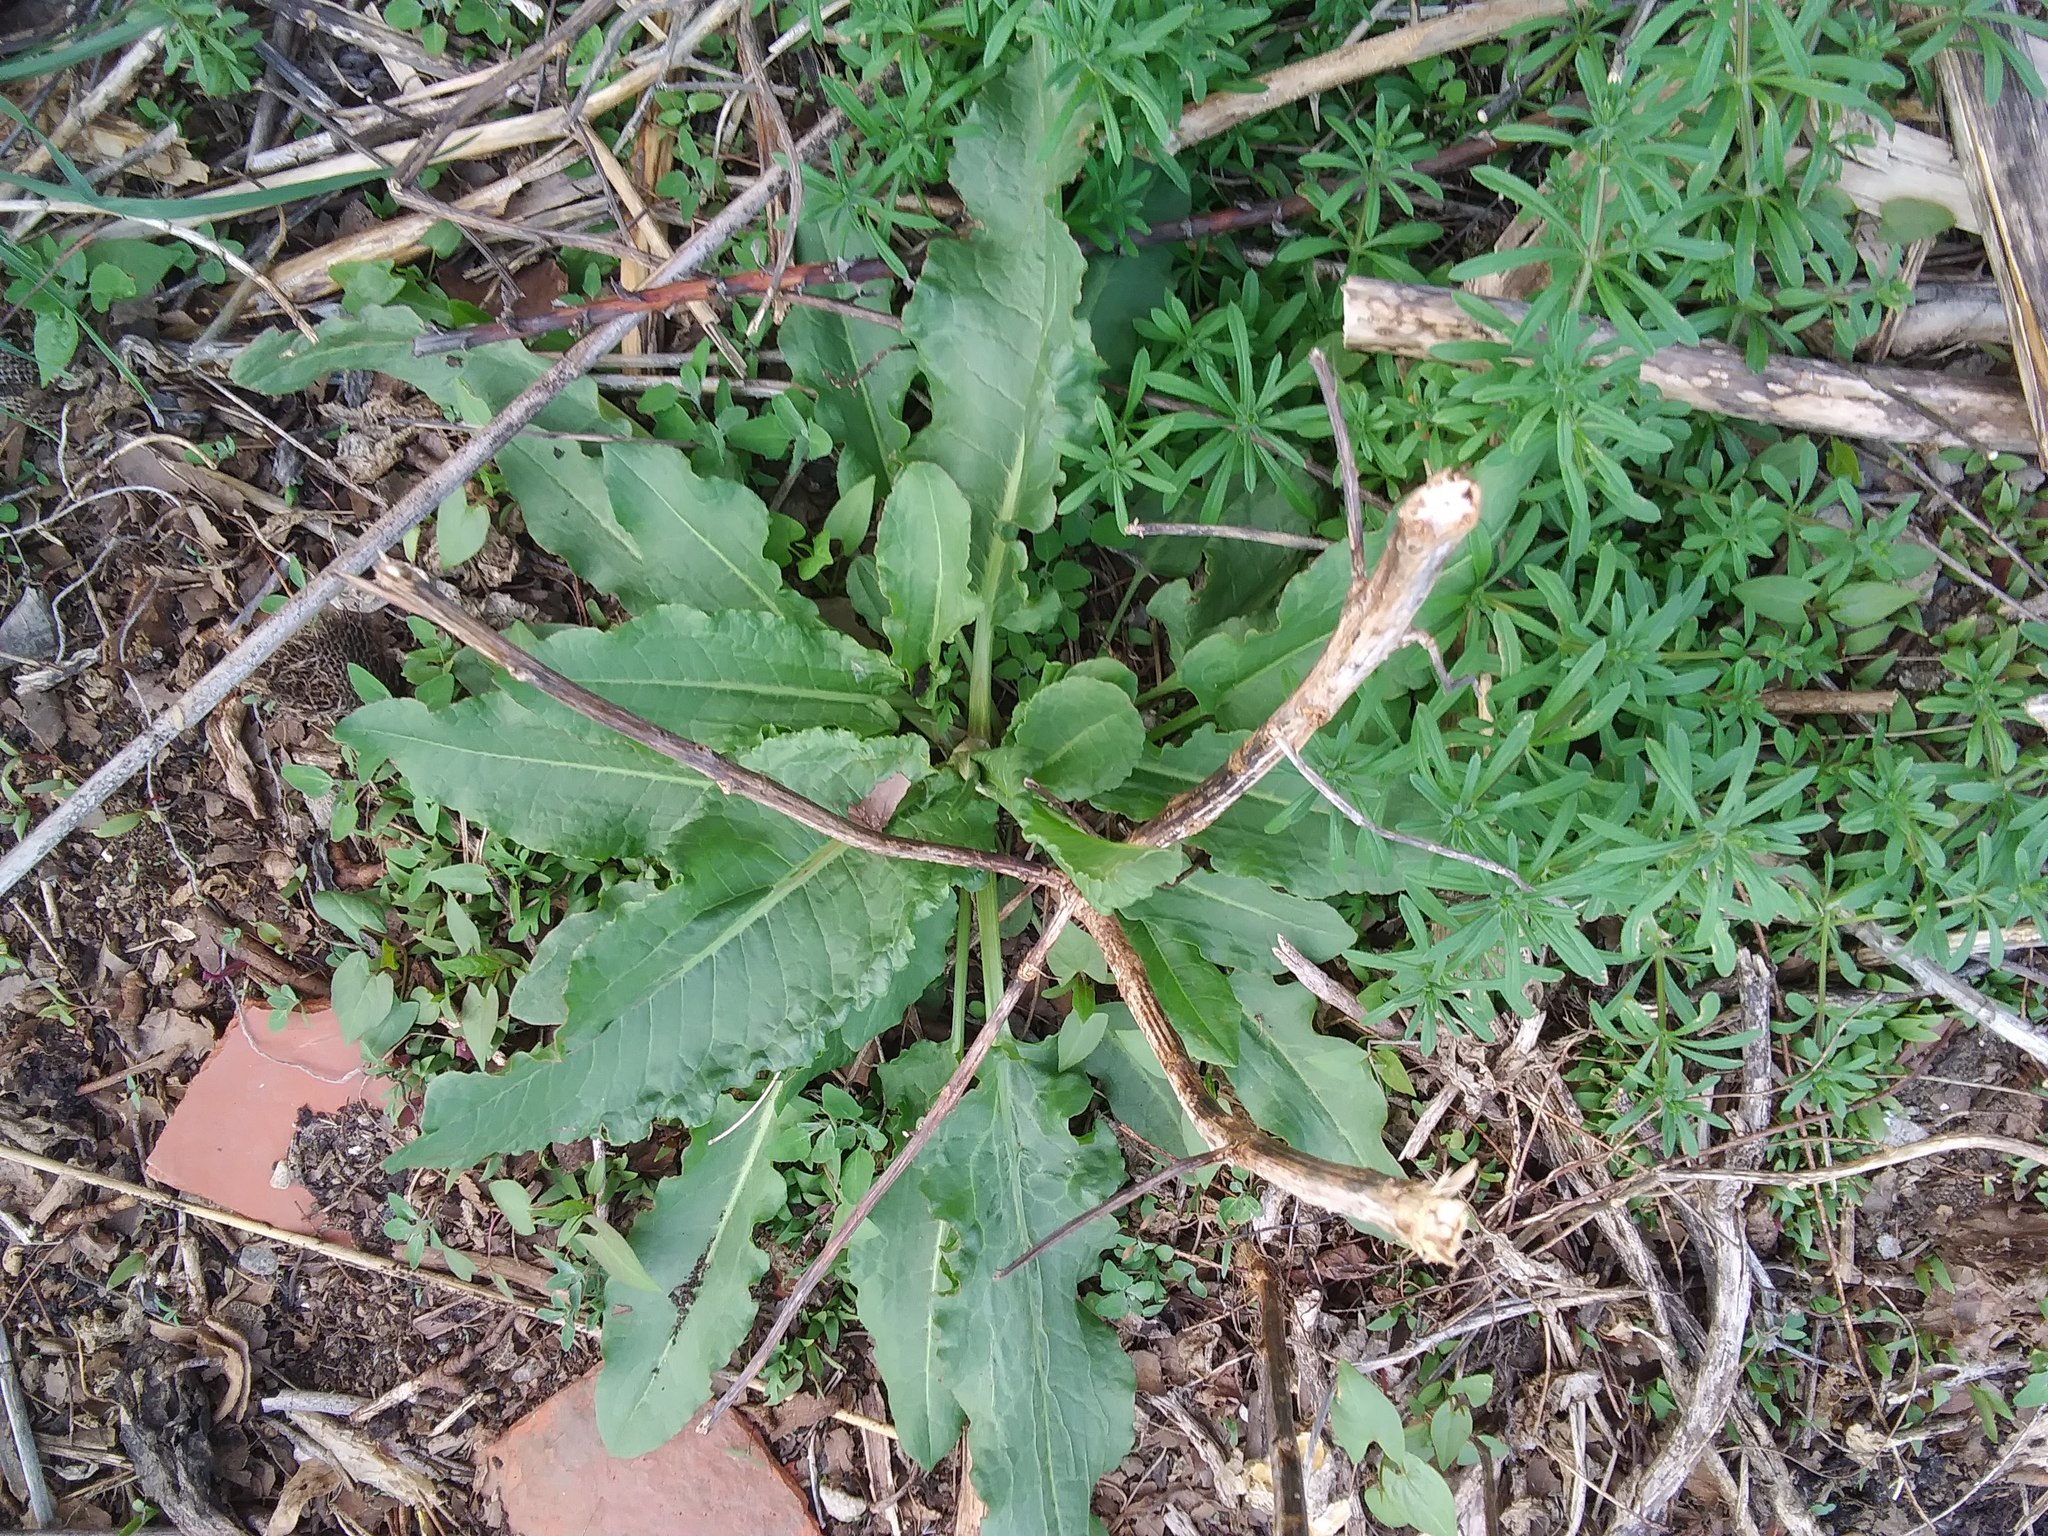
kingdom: Plantae
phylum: Tracheophyta
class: Magnoliopsida
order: Caryophyllales
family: Polygonaceae
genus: Rumex
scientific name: Rumex crispus
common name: Curled dock
